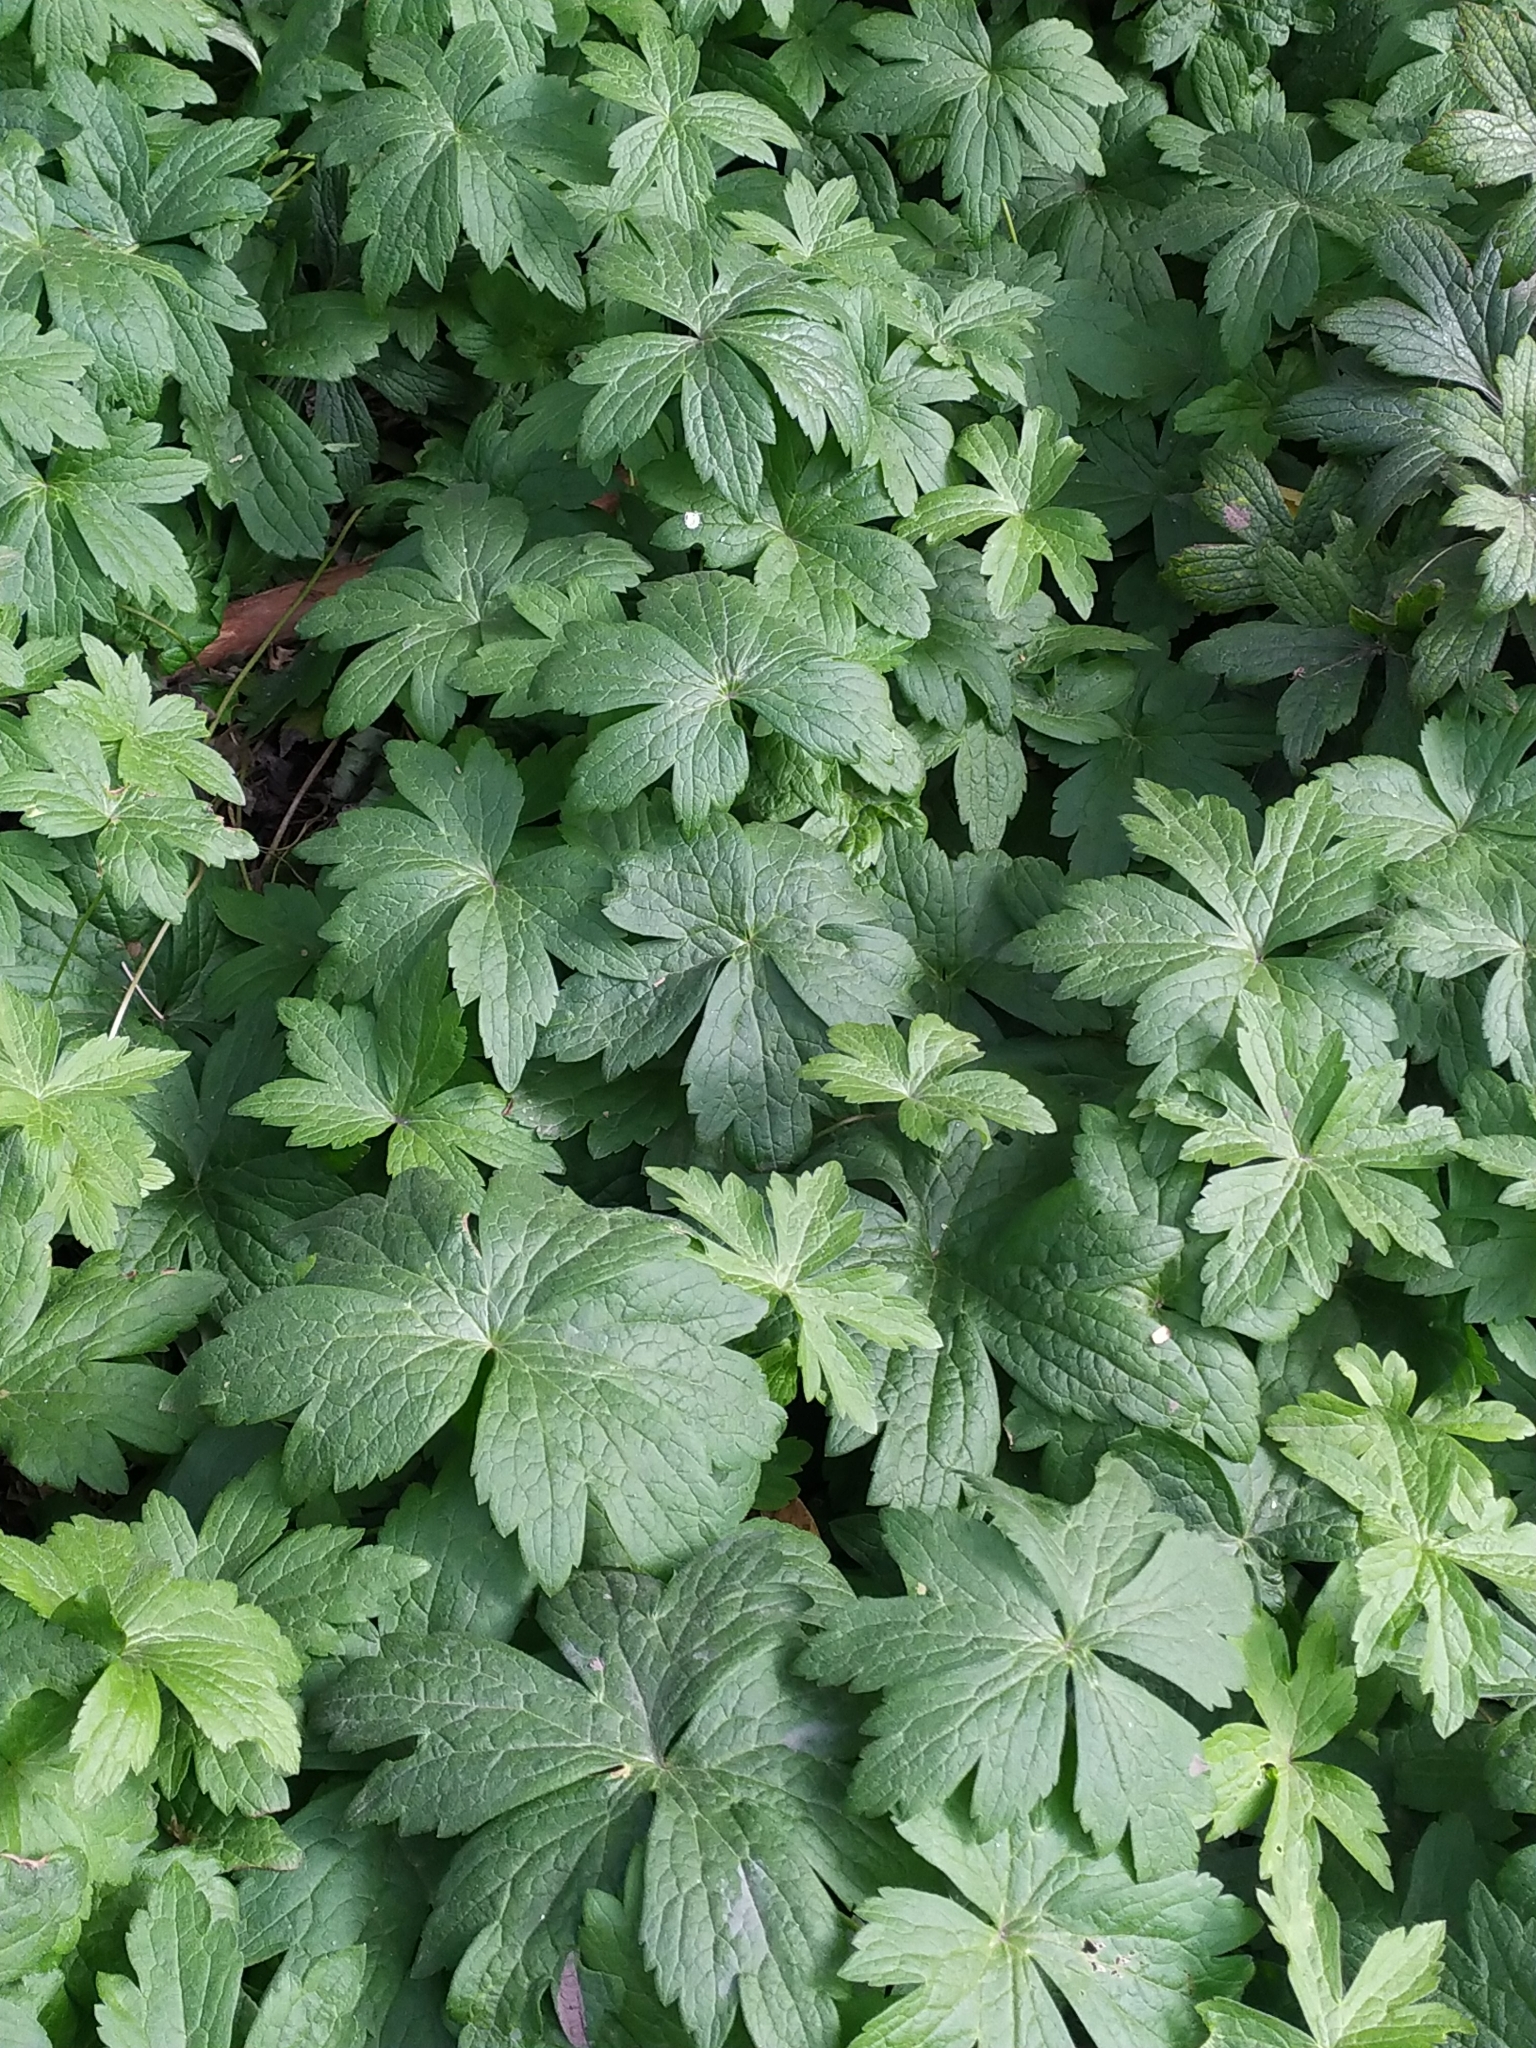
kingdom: Plantae
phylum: Tracheophyta
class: Magnoliopsida
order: Ranunculales
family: Ranunculaceae
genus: Anemonastrum
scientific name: Anemonastrum canadense
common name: Canada anemone
